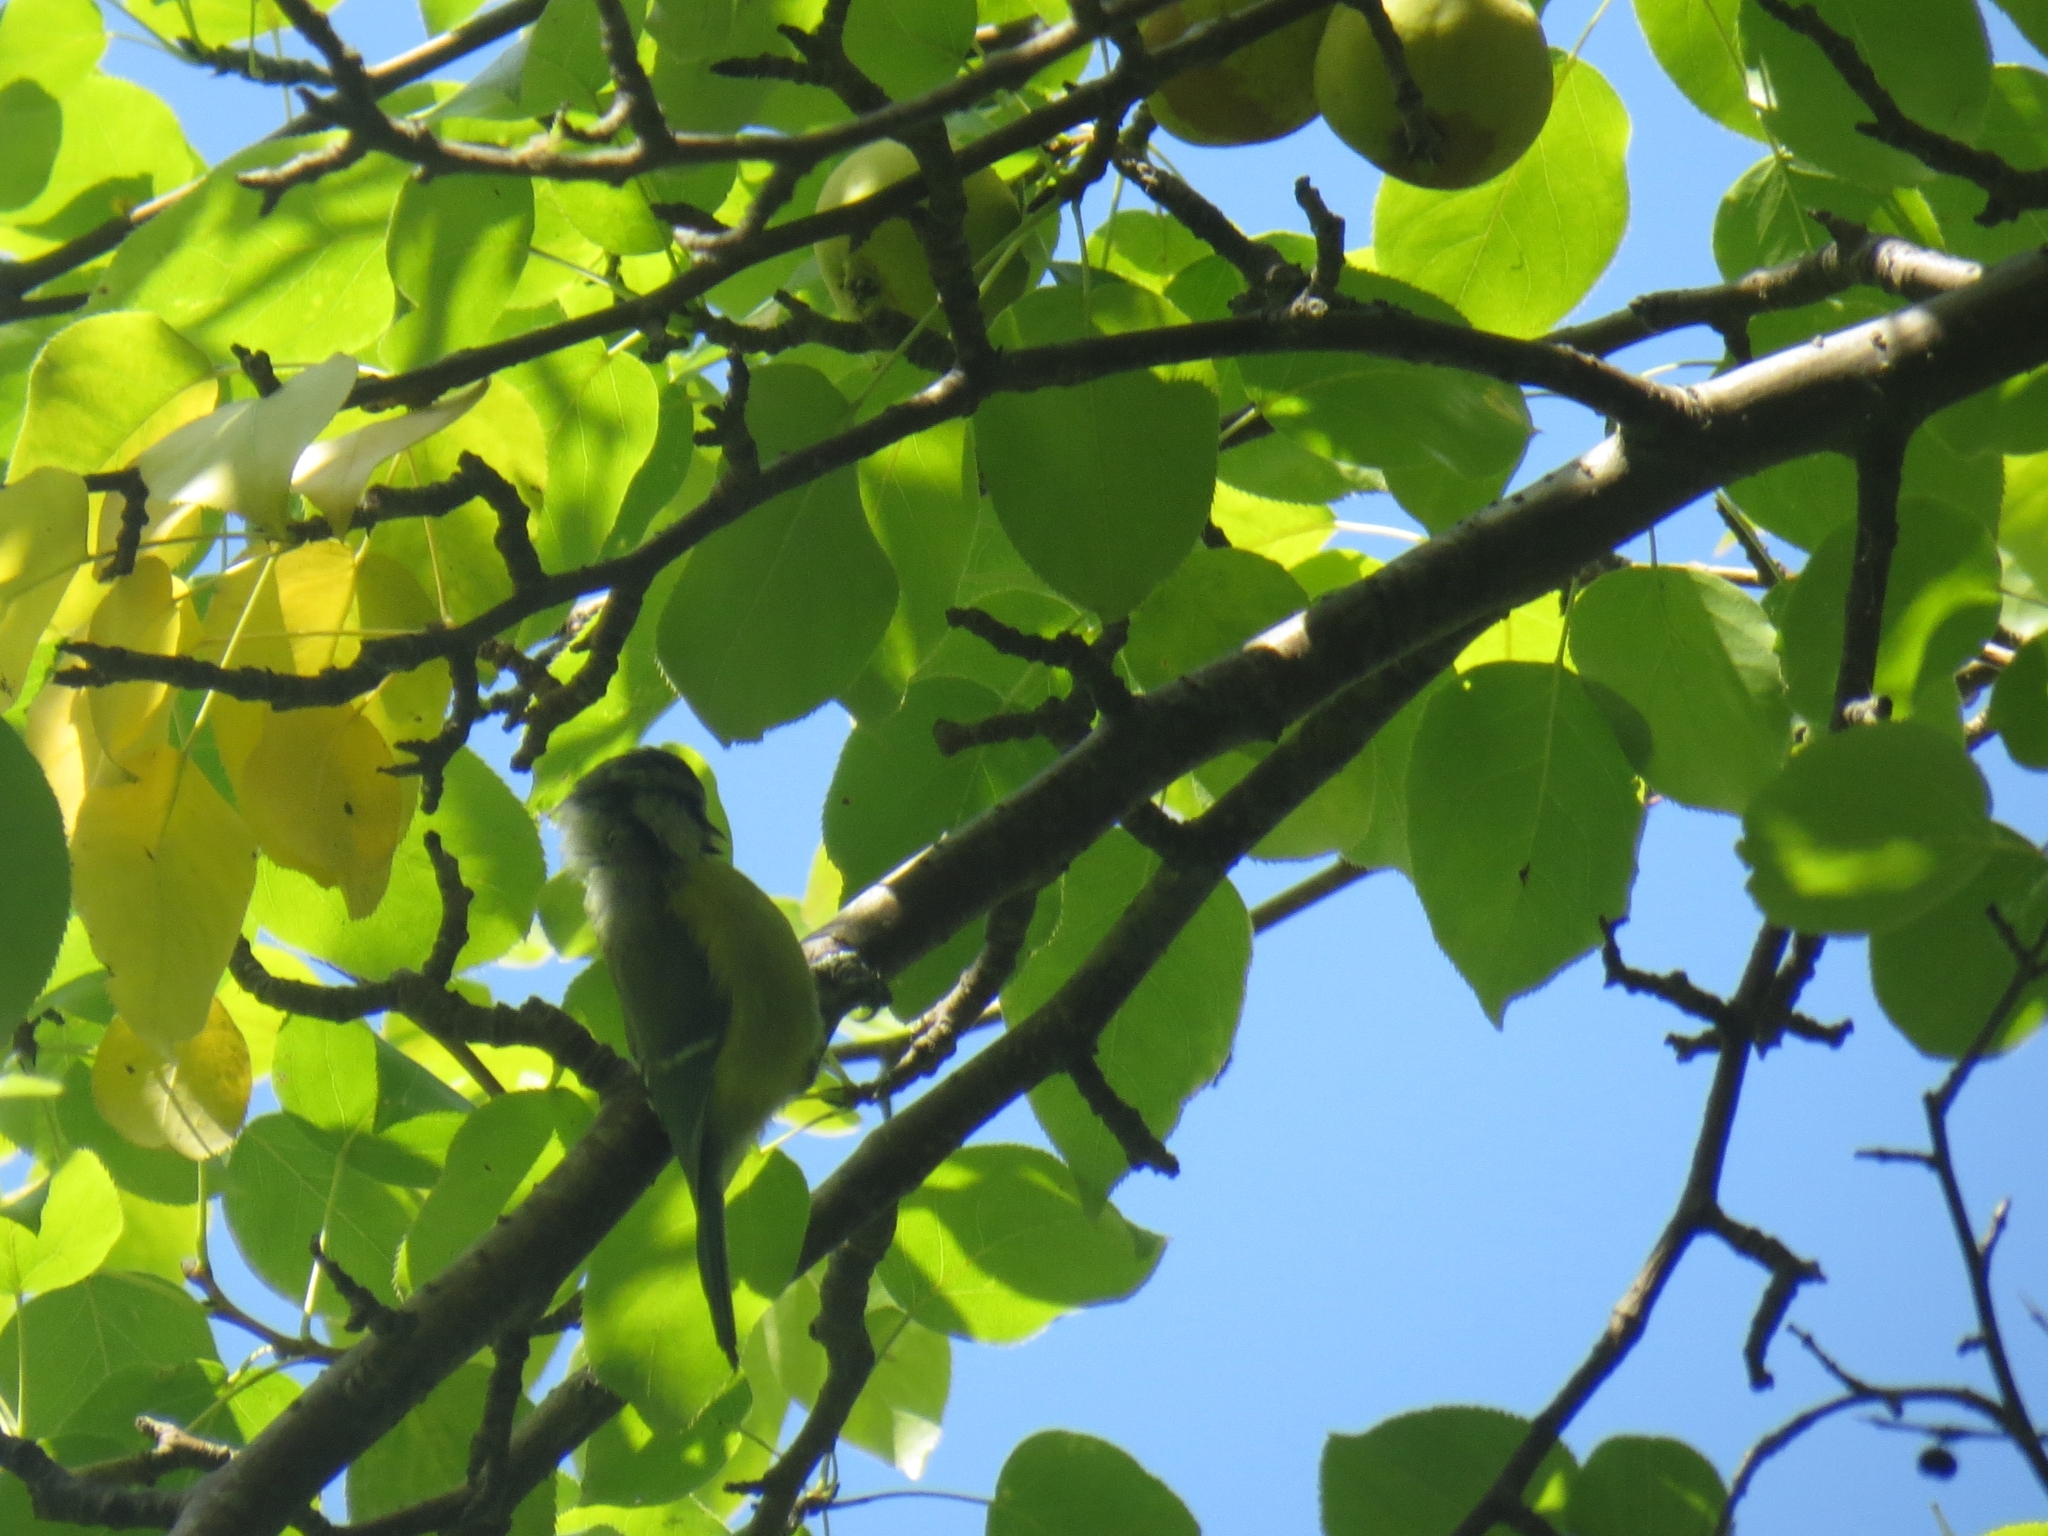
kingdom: Animalia
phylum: Chordata
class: Aves
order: Passeriformes
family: Paridae
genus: Cyanistes
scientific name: Cyanistes caeruleus
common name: Eurasian blue tit
